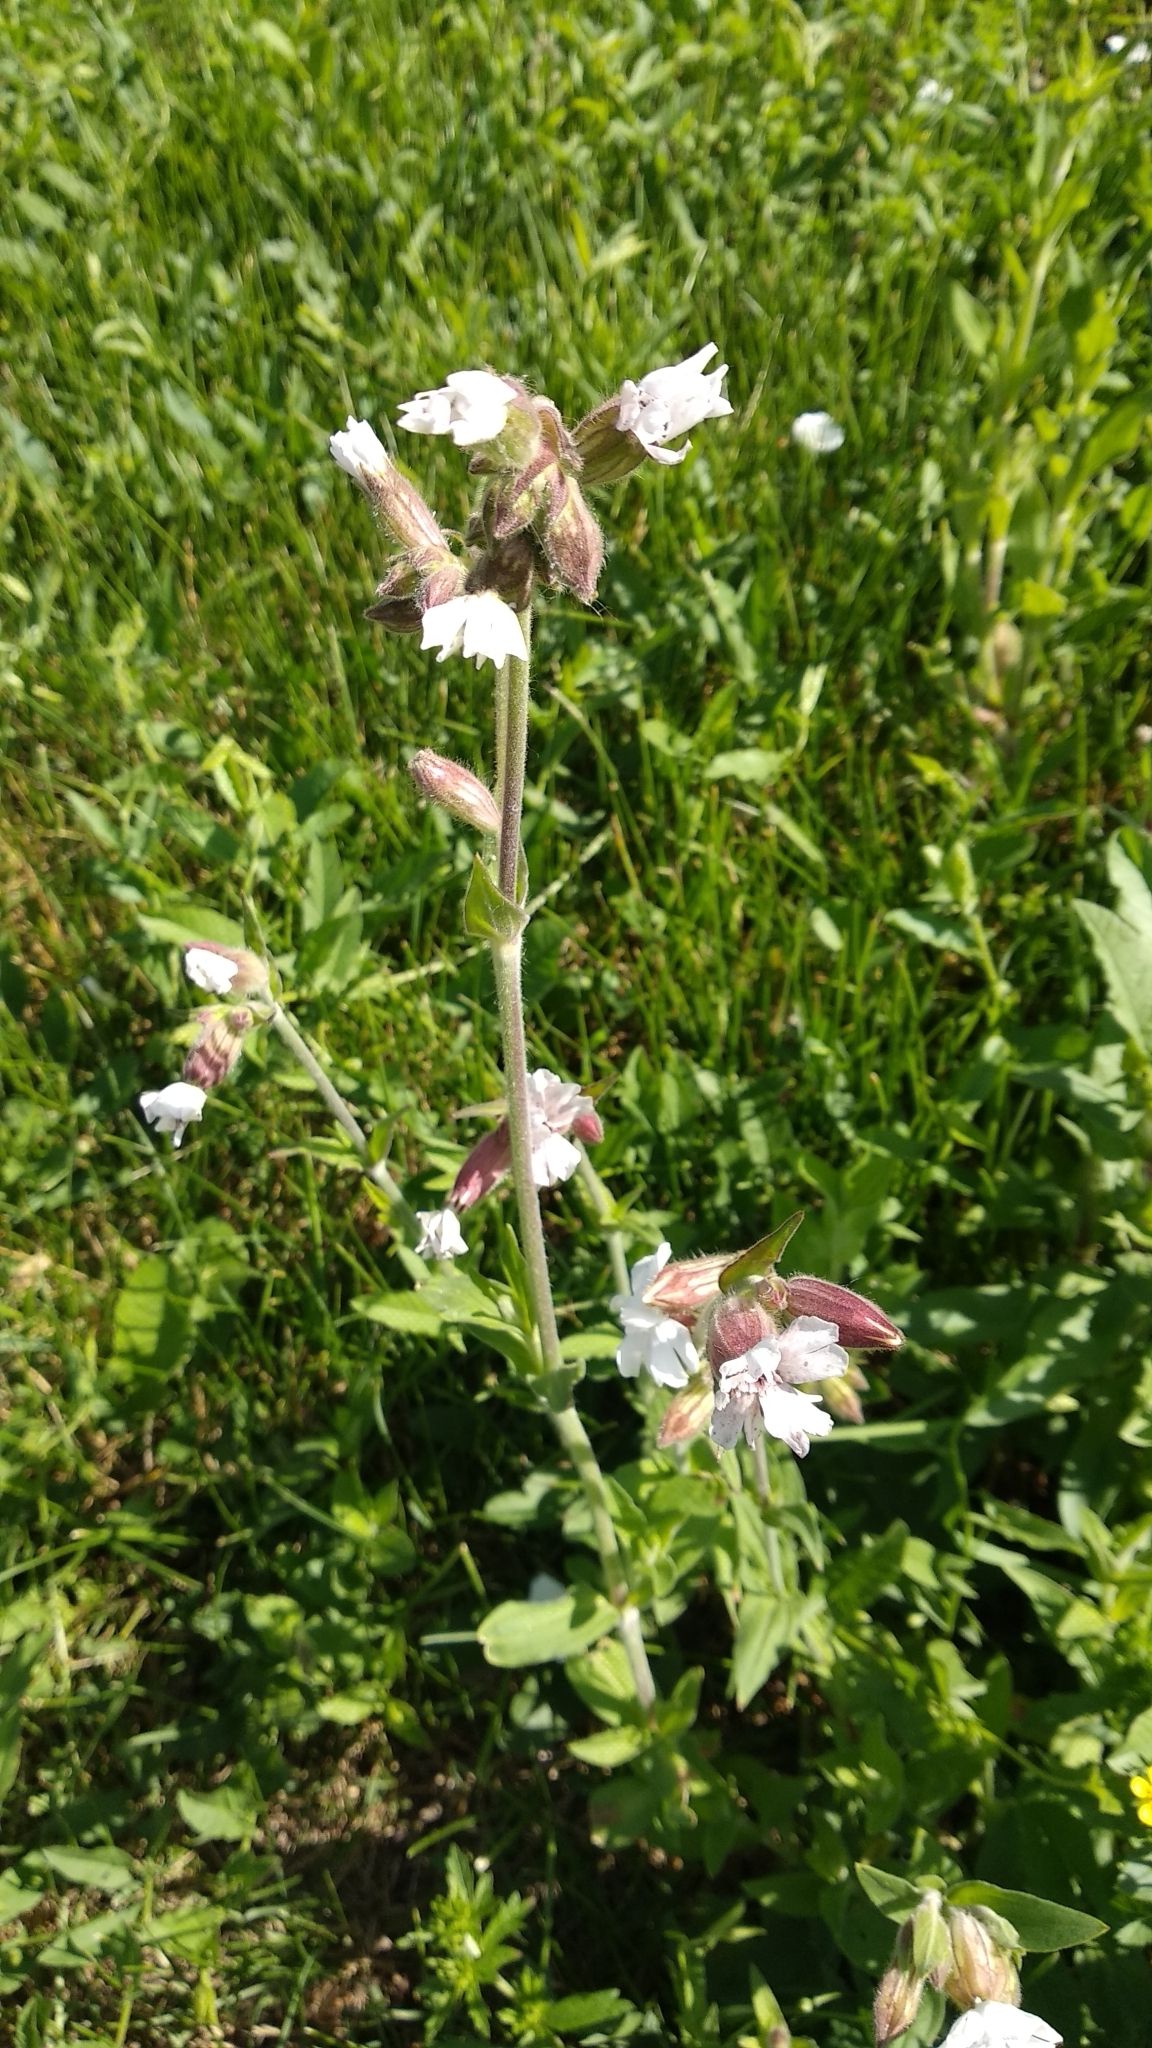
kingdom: Plantae
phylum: Tracheophyta
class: Magnoliopsida
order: Caryophyllales
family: Caryophyllaceae
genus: Silene
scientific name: Silene latifolia
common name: White campion
